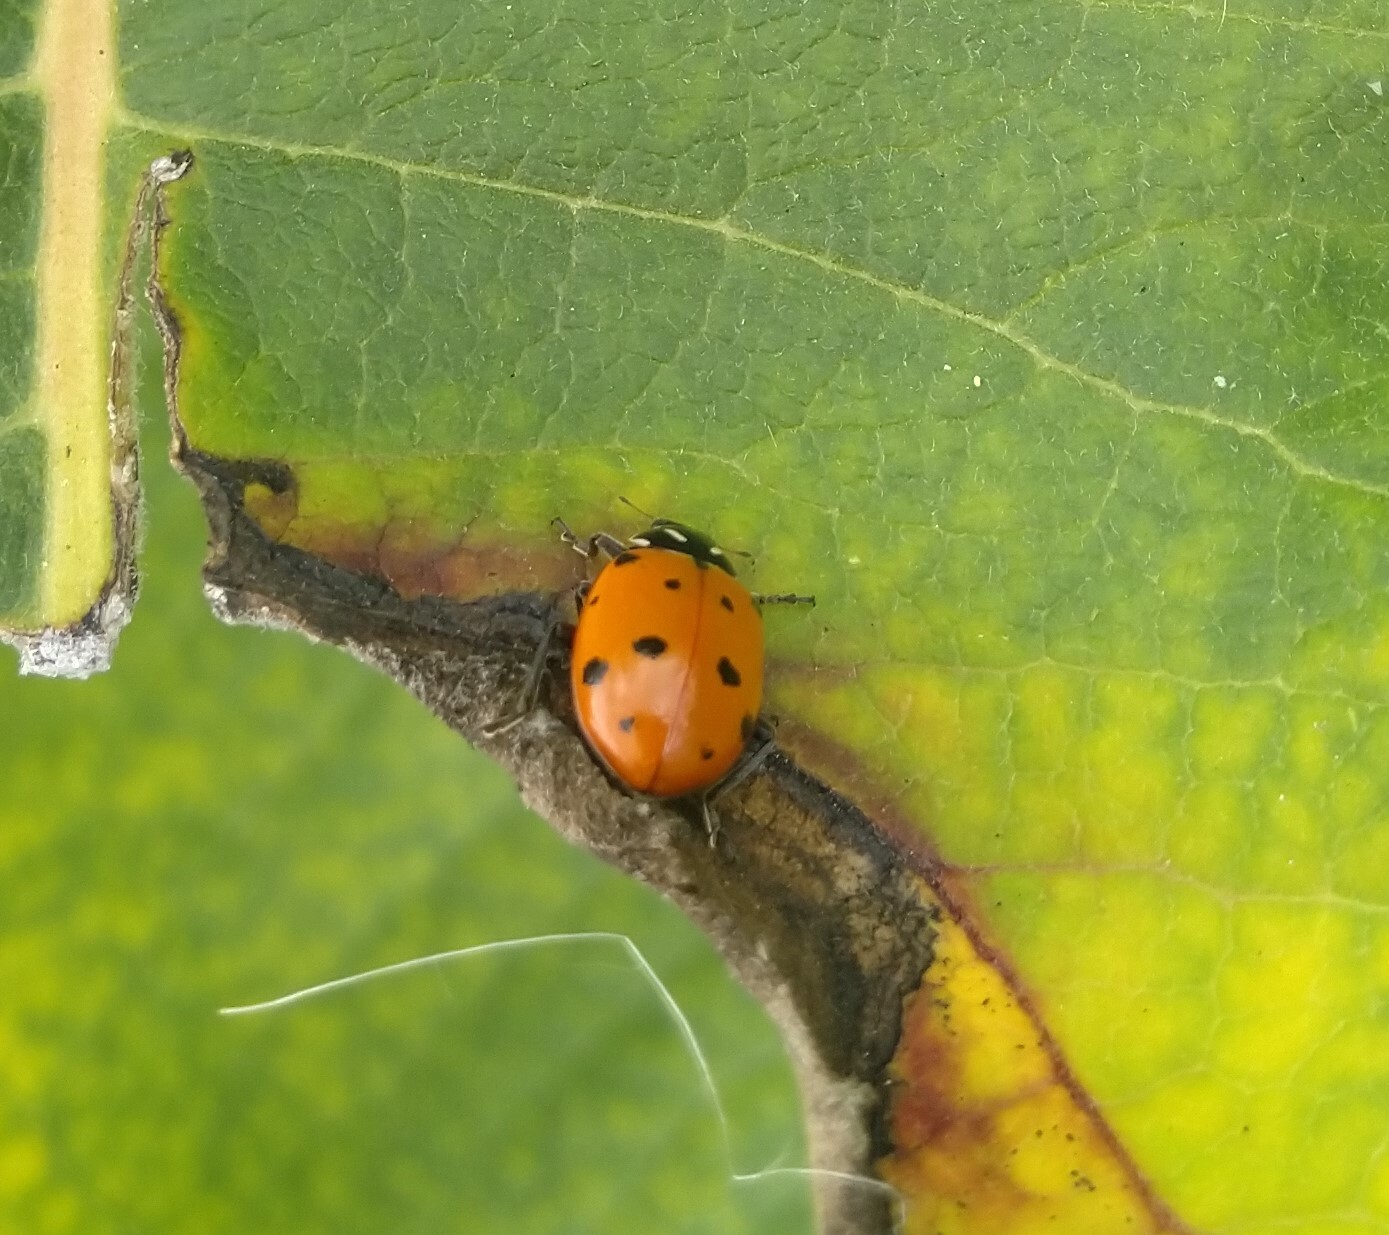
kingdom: Animalia
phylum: Arthropoda
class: Insecta
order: Coleoptera
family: Coccinellidae
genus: Hippodamia
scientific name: Hippodamia convergens
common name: Convergent lady beetle
